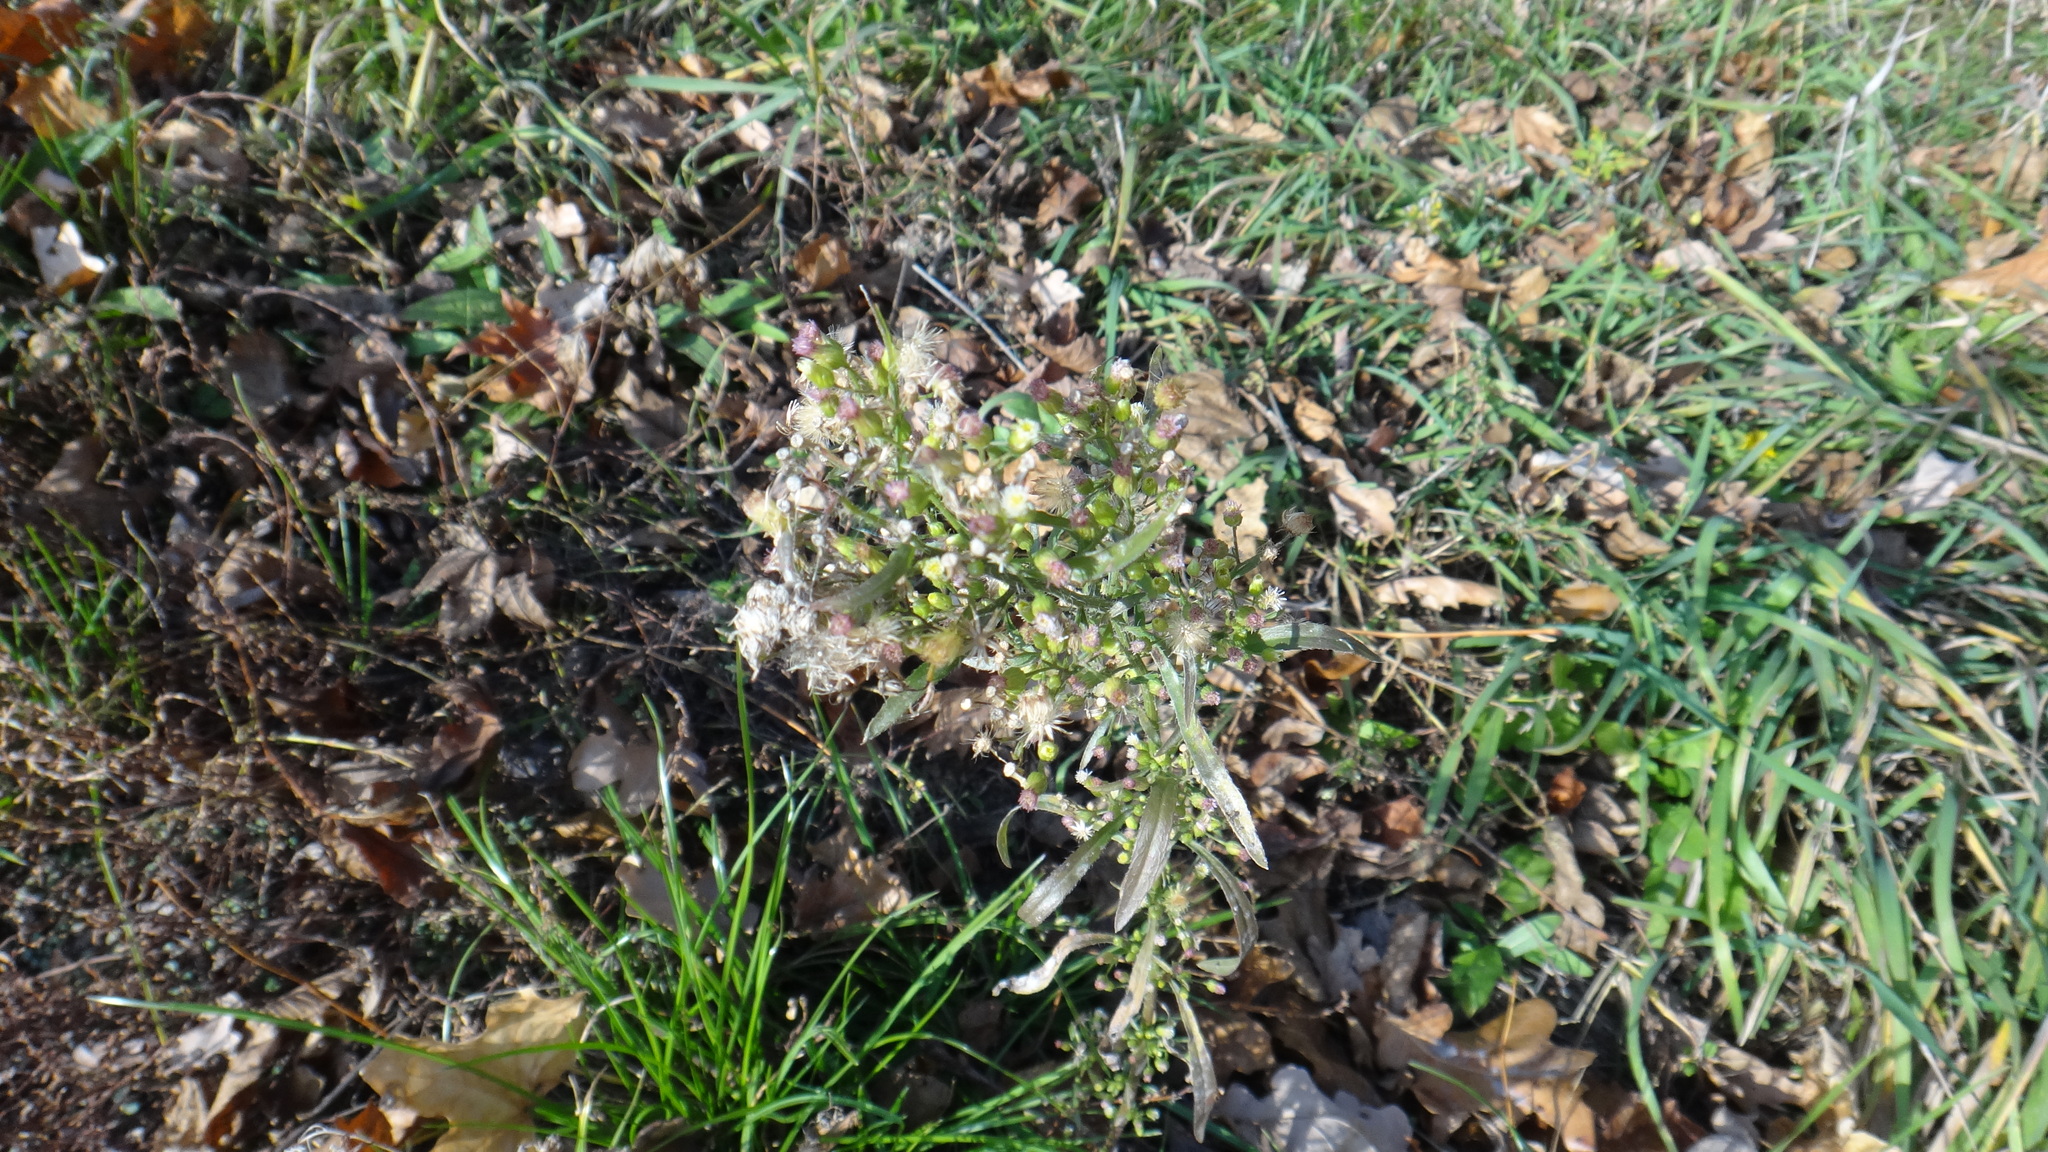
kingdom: Plantae
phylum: Tracheophyta
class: Magnoliopsida
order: Asterales
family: Asteraceae
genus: Erigeron
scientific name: Erigeron canadensis
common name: Canadian fleabane
